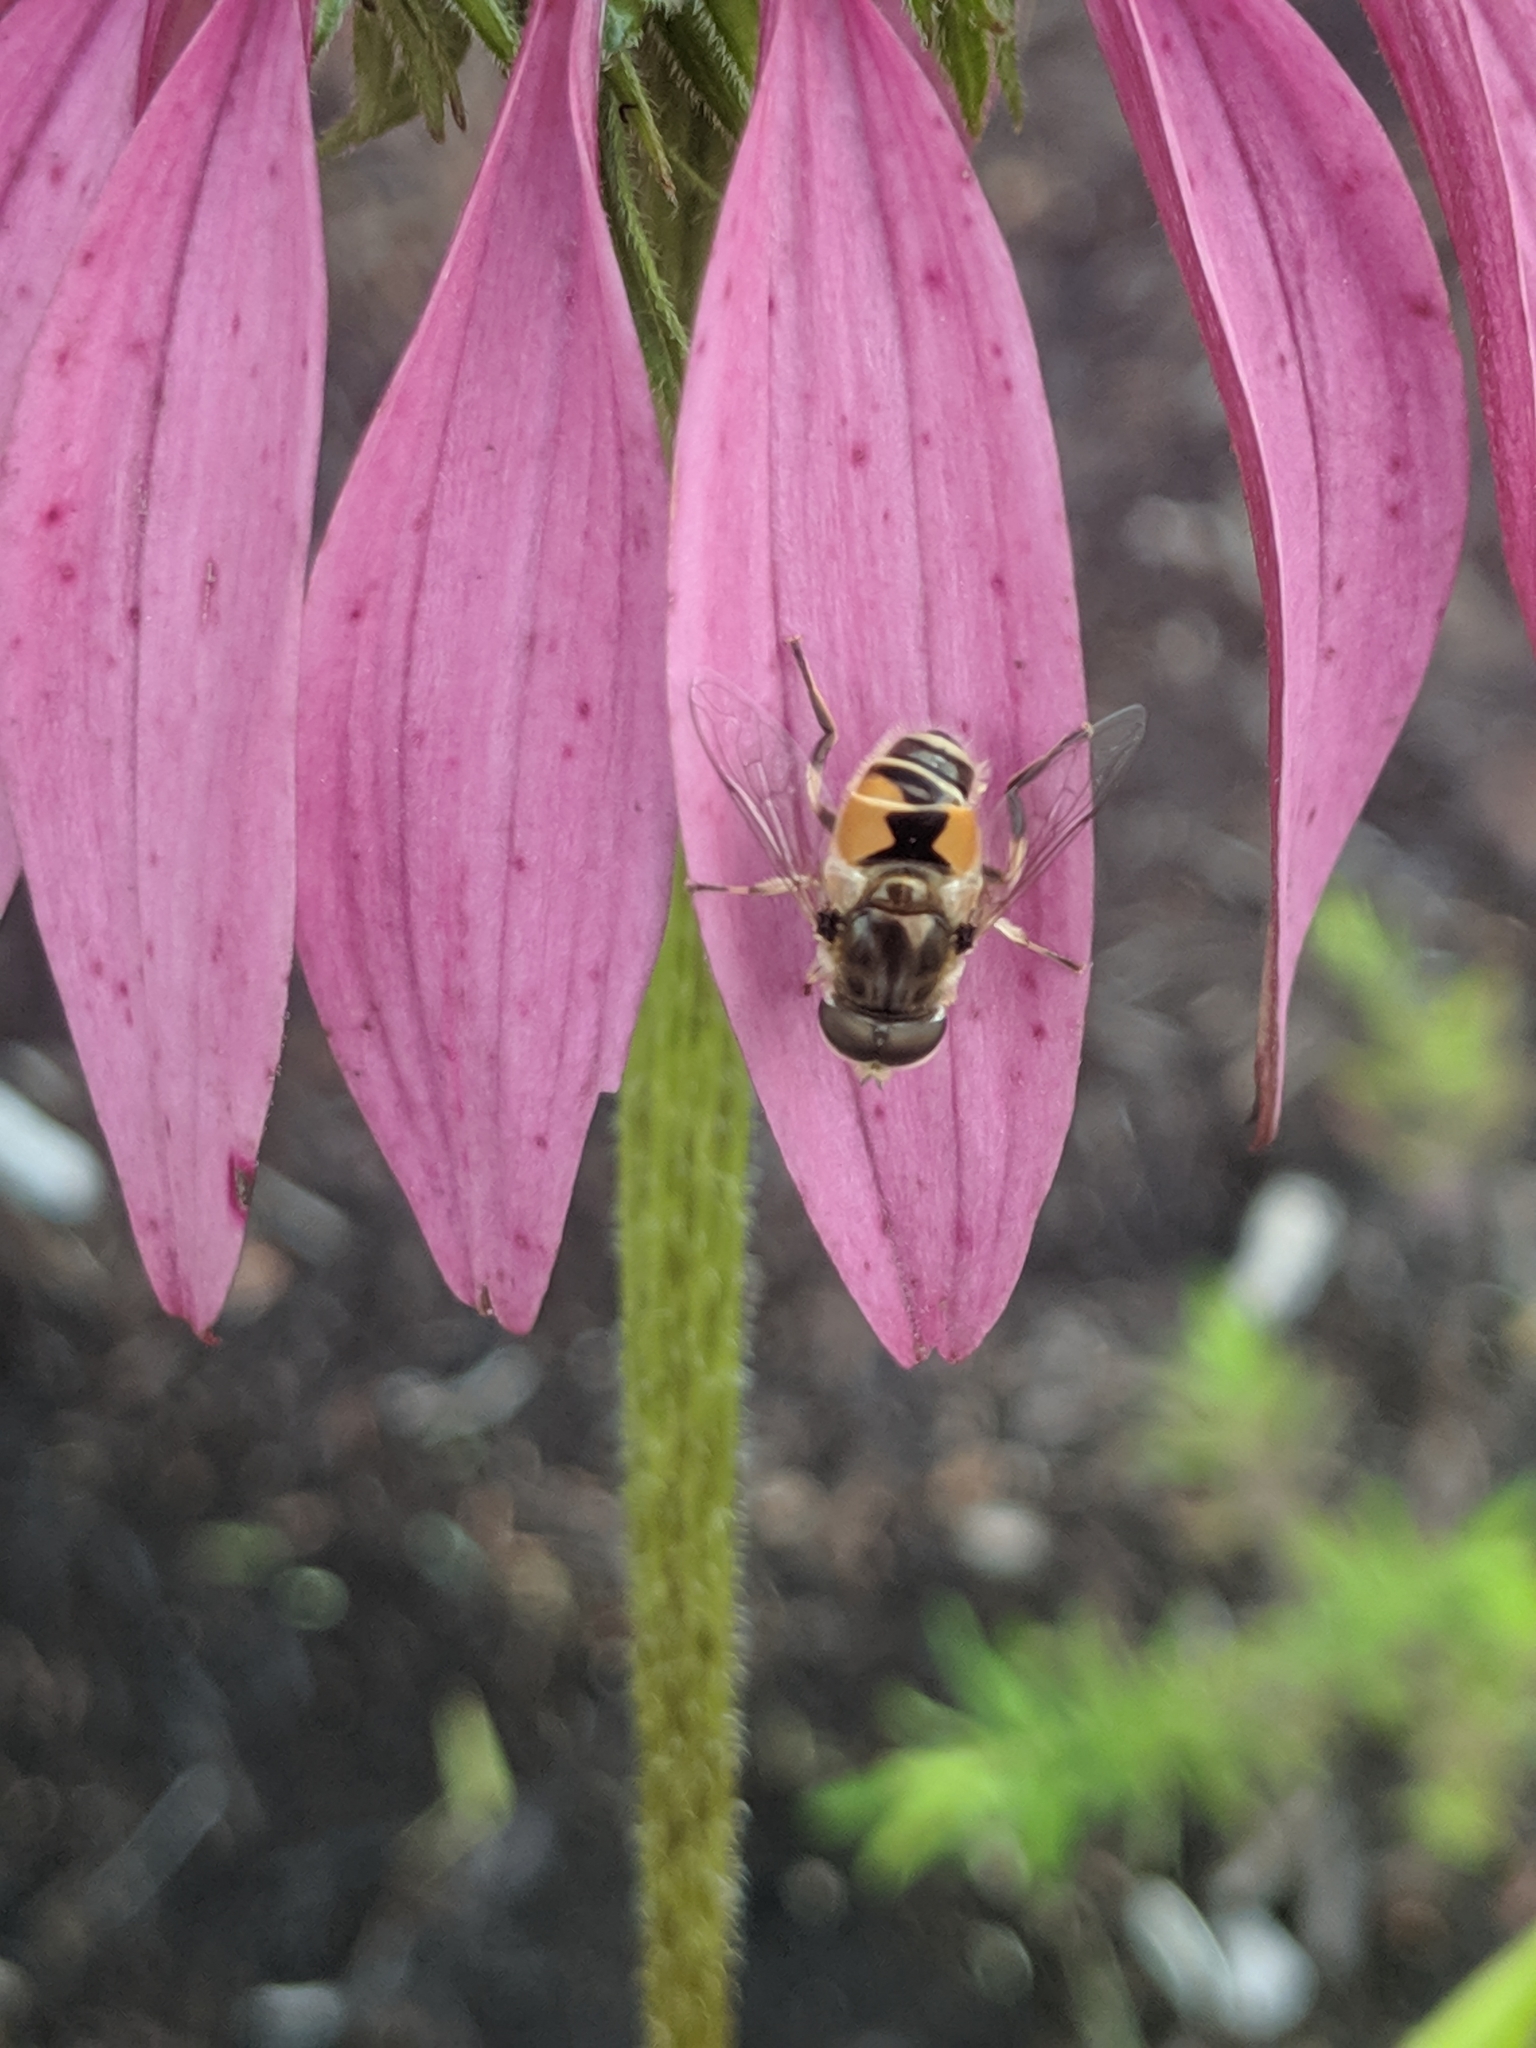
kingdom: Animalia
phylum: Arthropoda
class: Insecta
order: Diptera
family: Syrphidae
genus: Eristalis
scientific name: Eristalis arbustorum
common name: Hover fly
